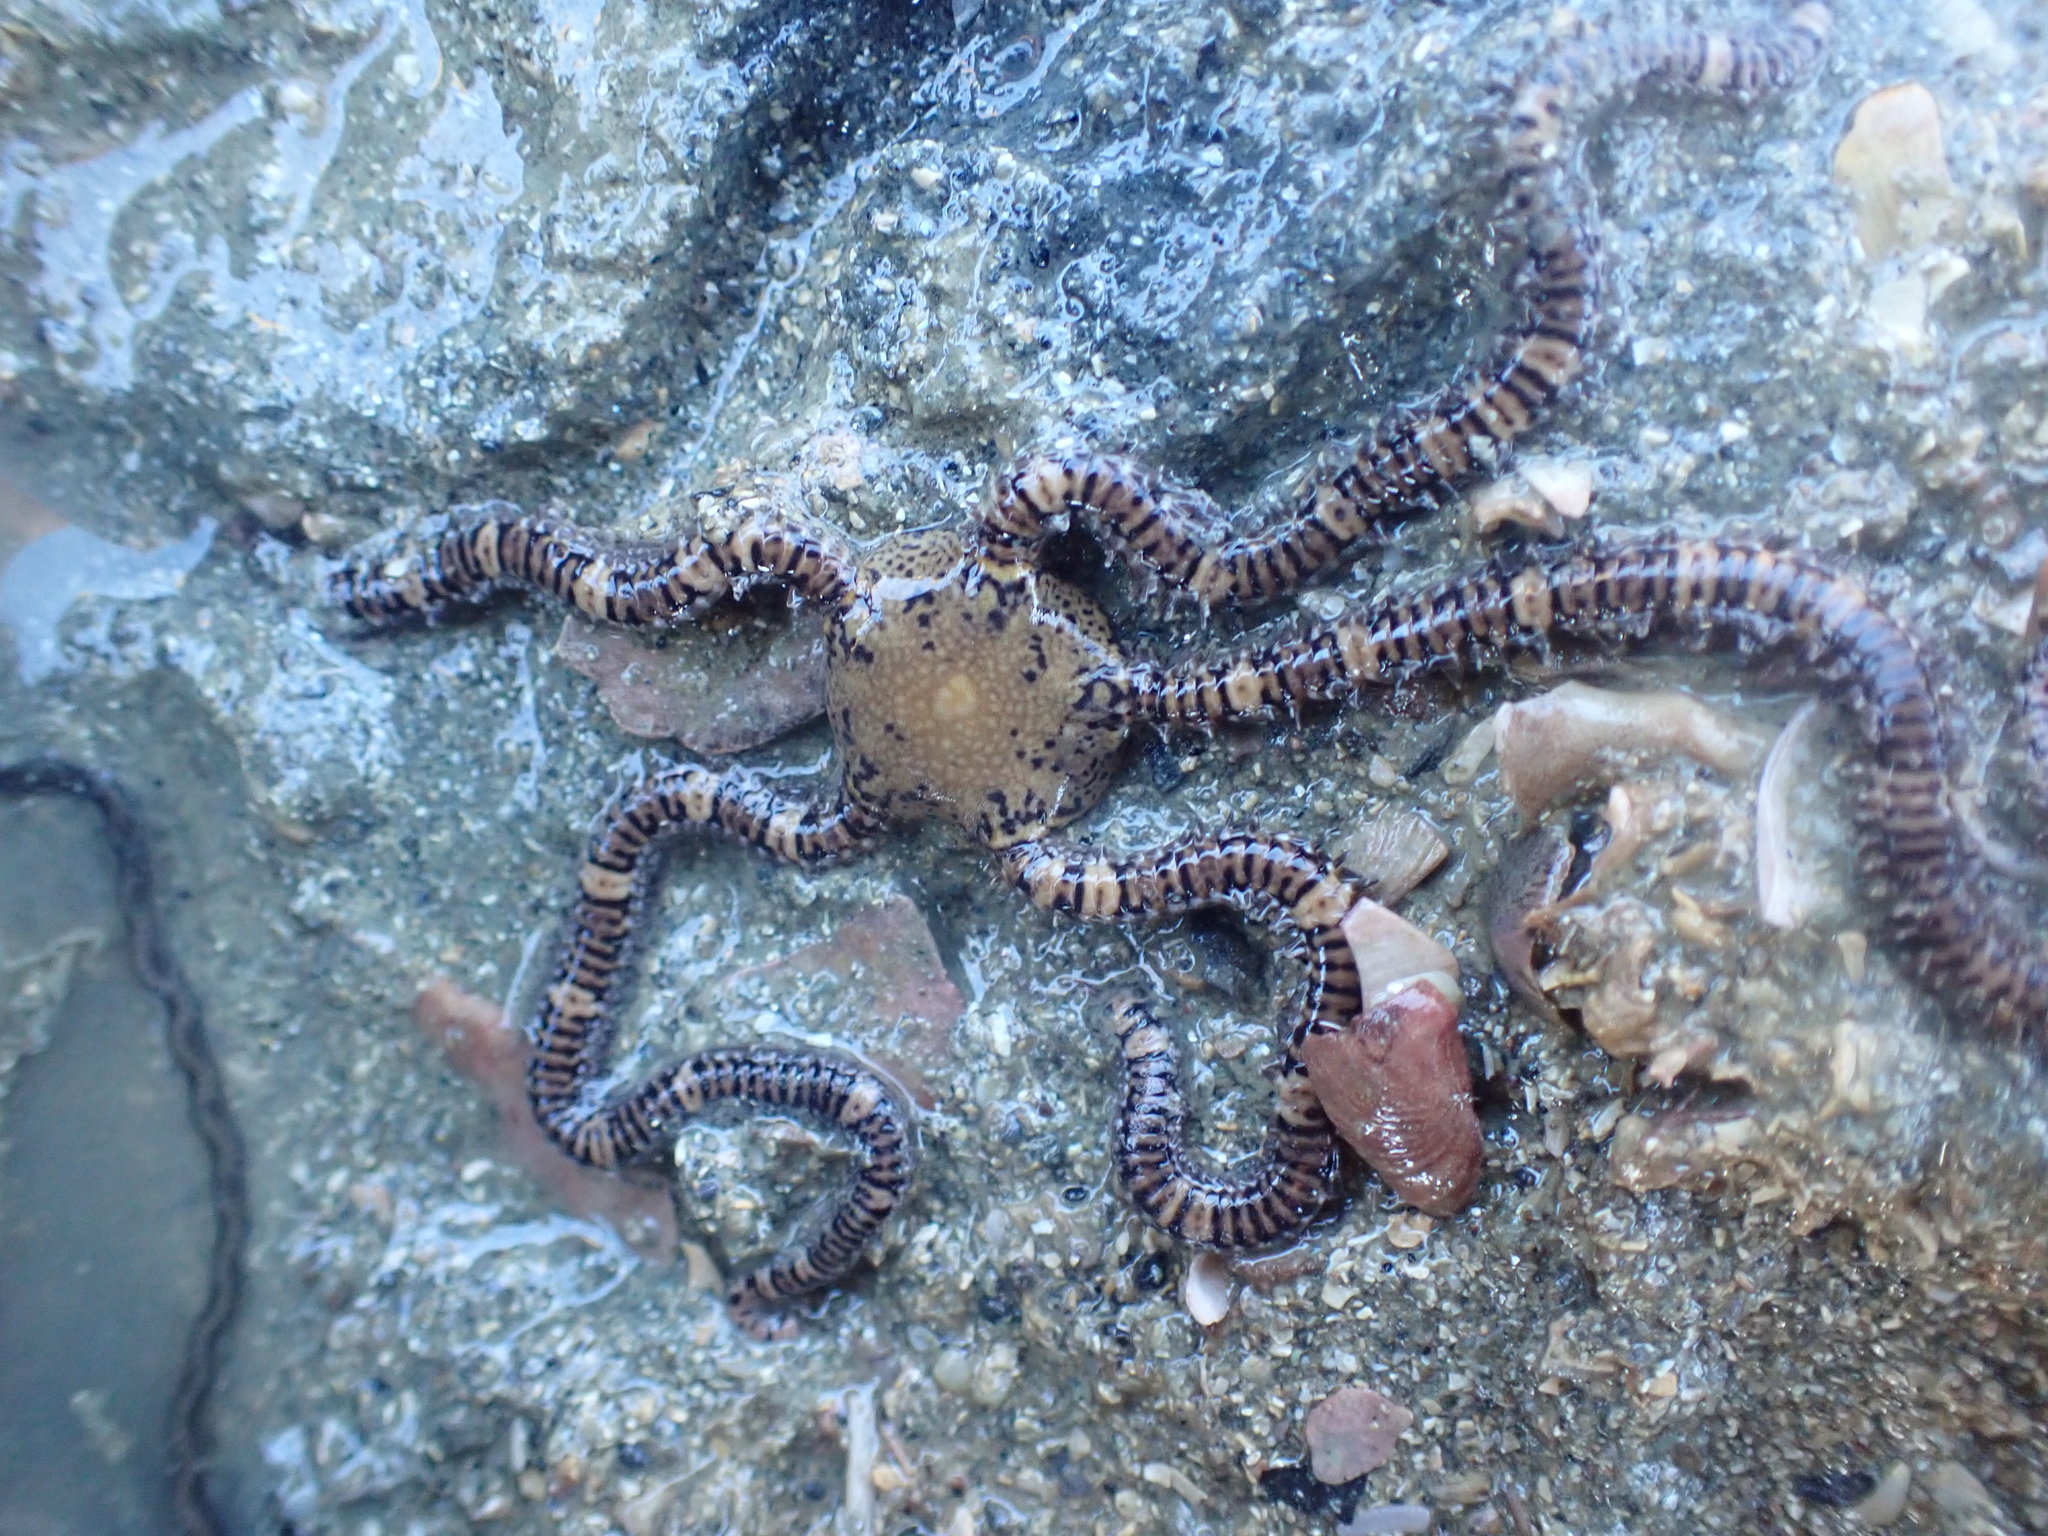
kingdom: Animalia
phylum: Echinodermata
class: Ophiuroidea
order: Amphilepidida
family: Ophionereididae
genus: Ophionereis
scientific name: Ophionereis fasciata
